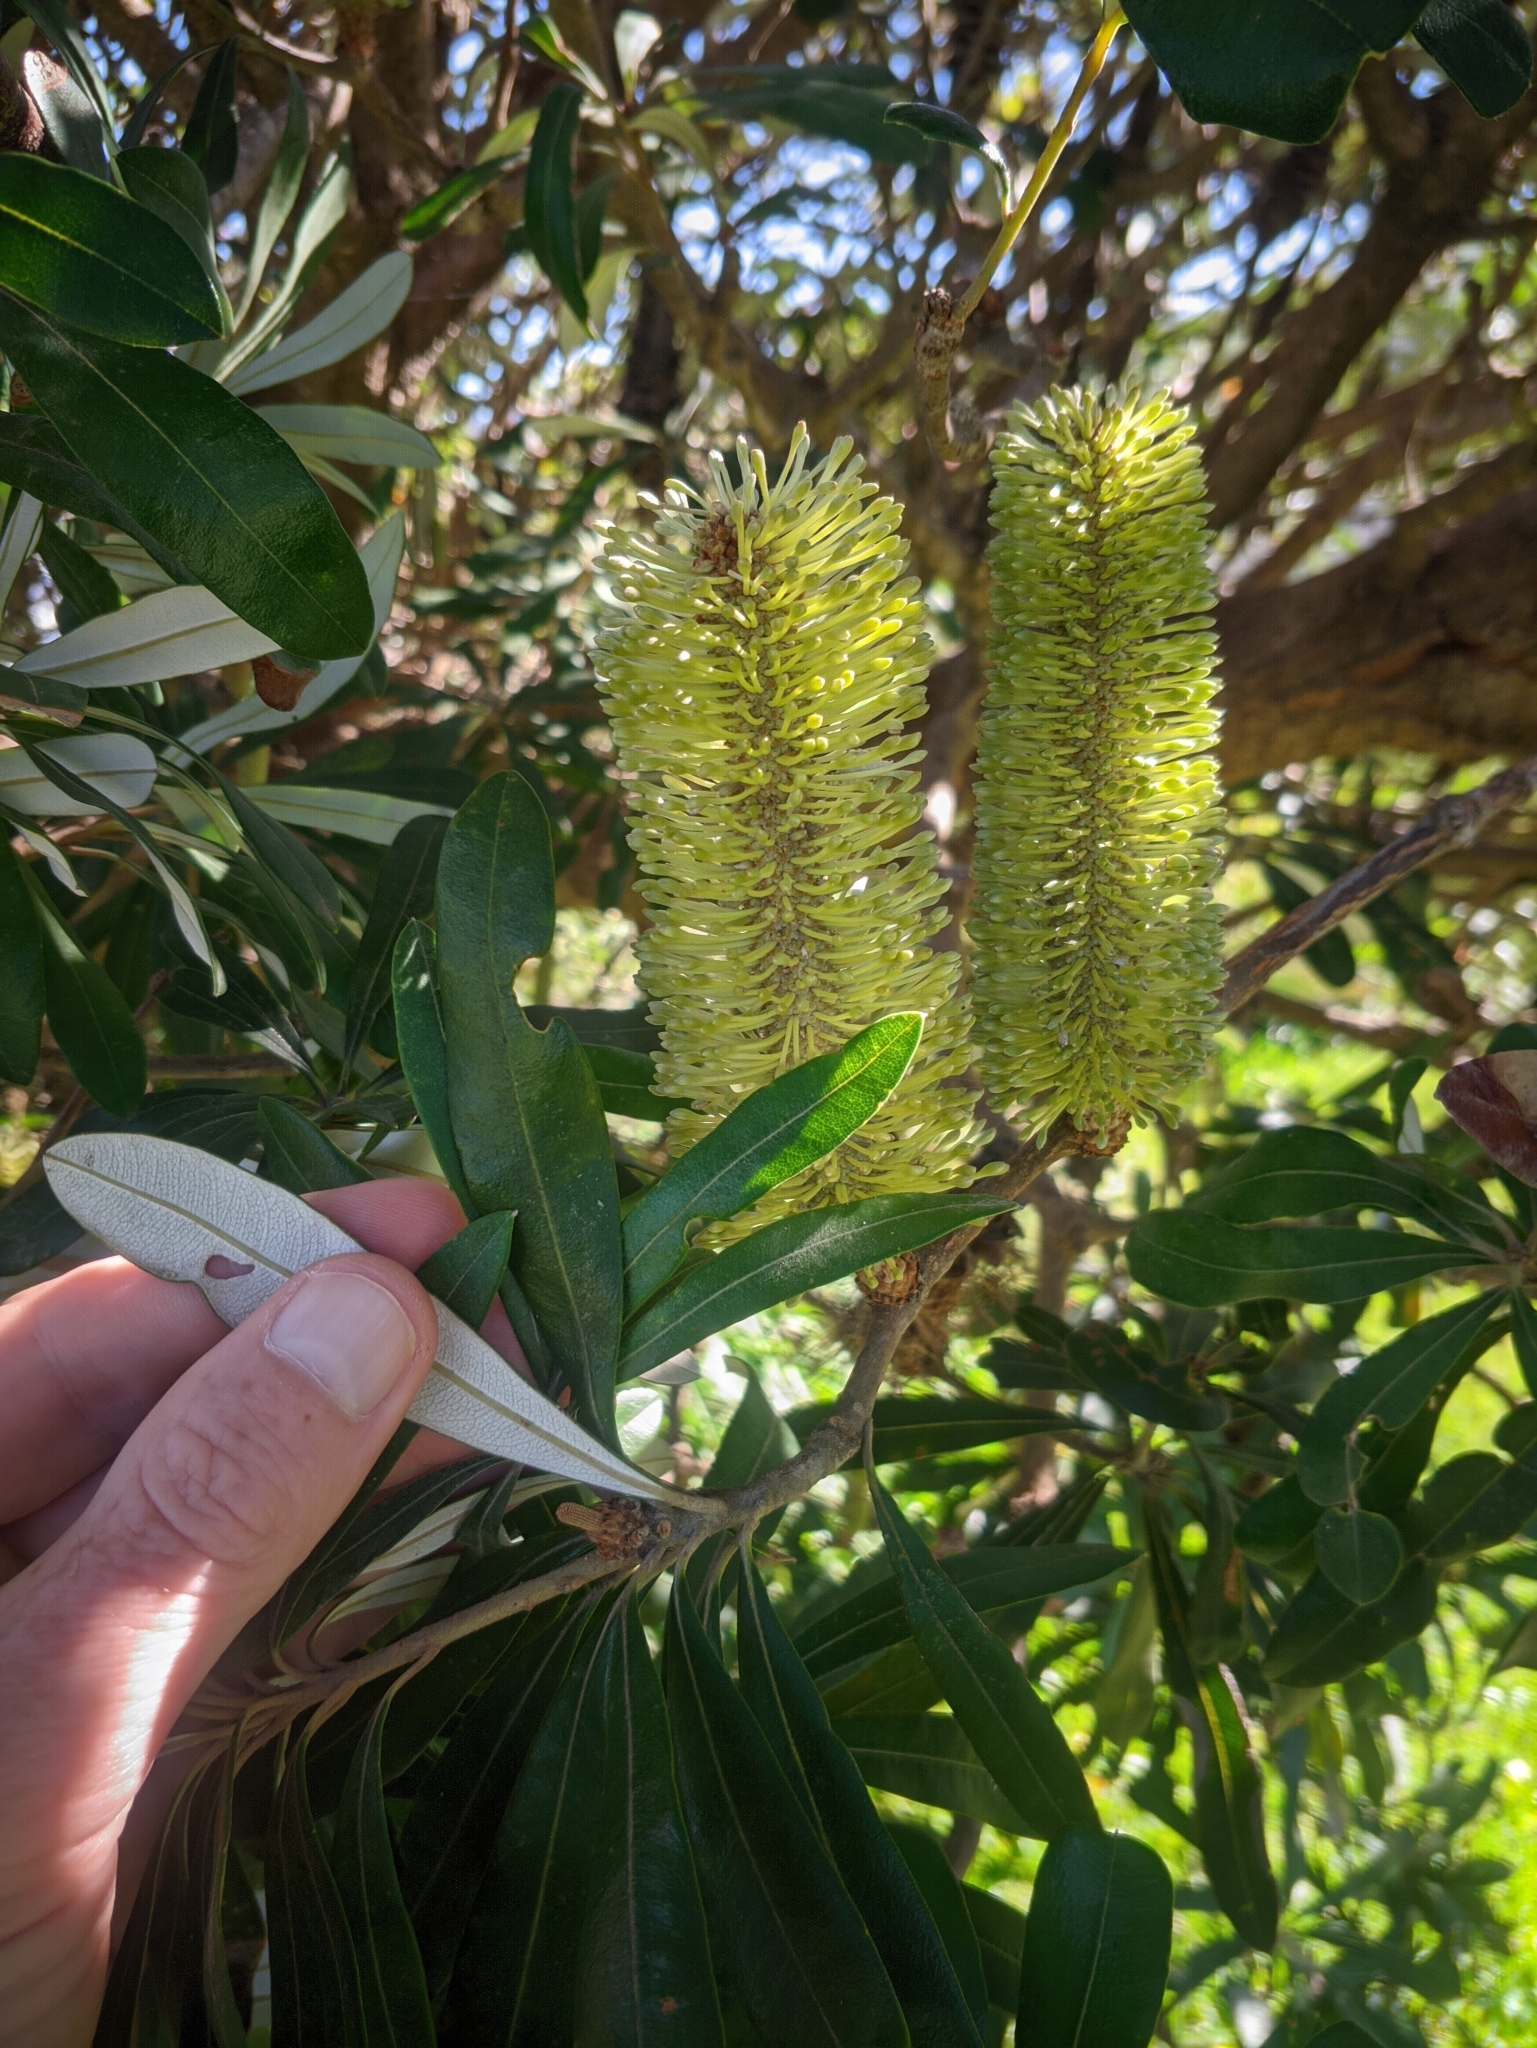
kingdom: Plantae
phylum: Tracheophyta
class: Magnoliopsida
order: Proteales
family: Proteaceae
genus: Banksia
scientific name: Banksia integrifolia
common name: White-honeysuckle
